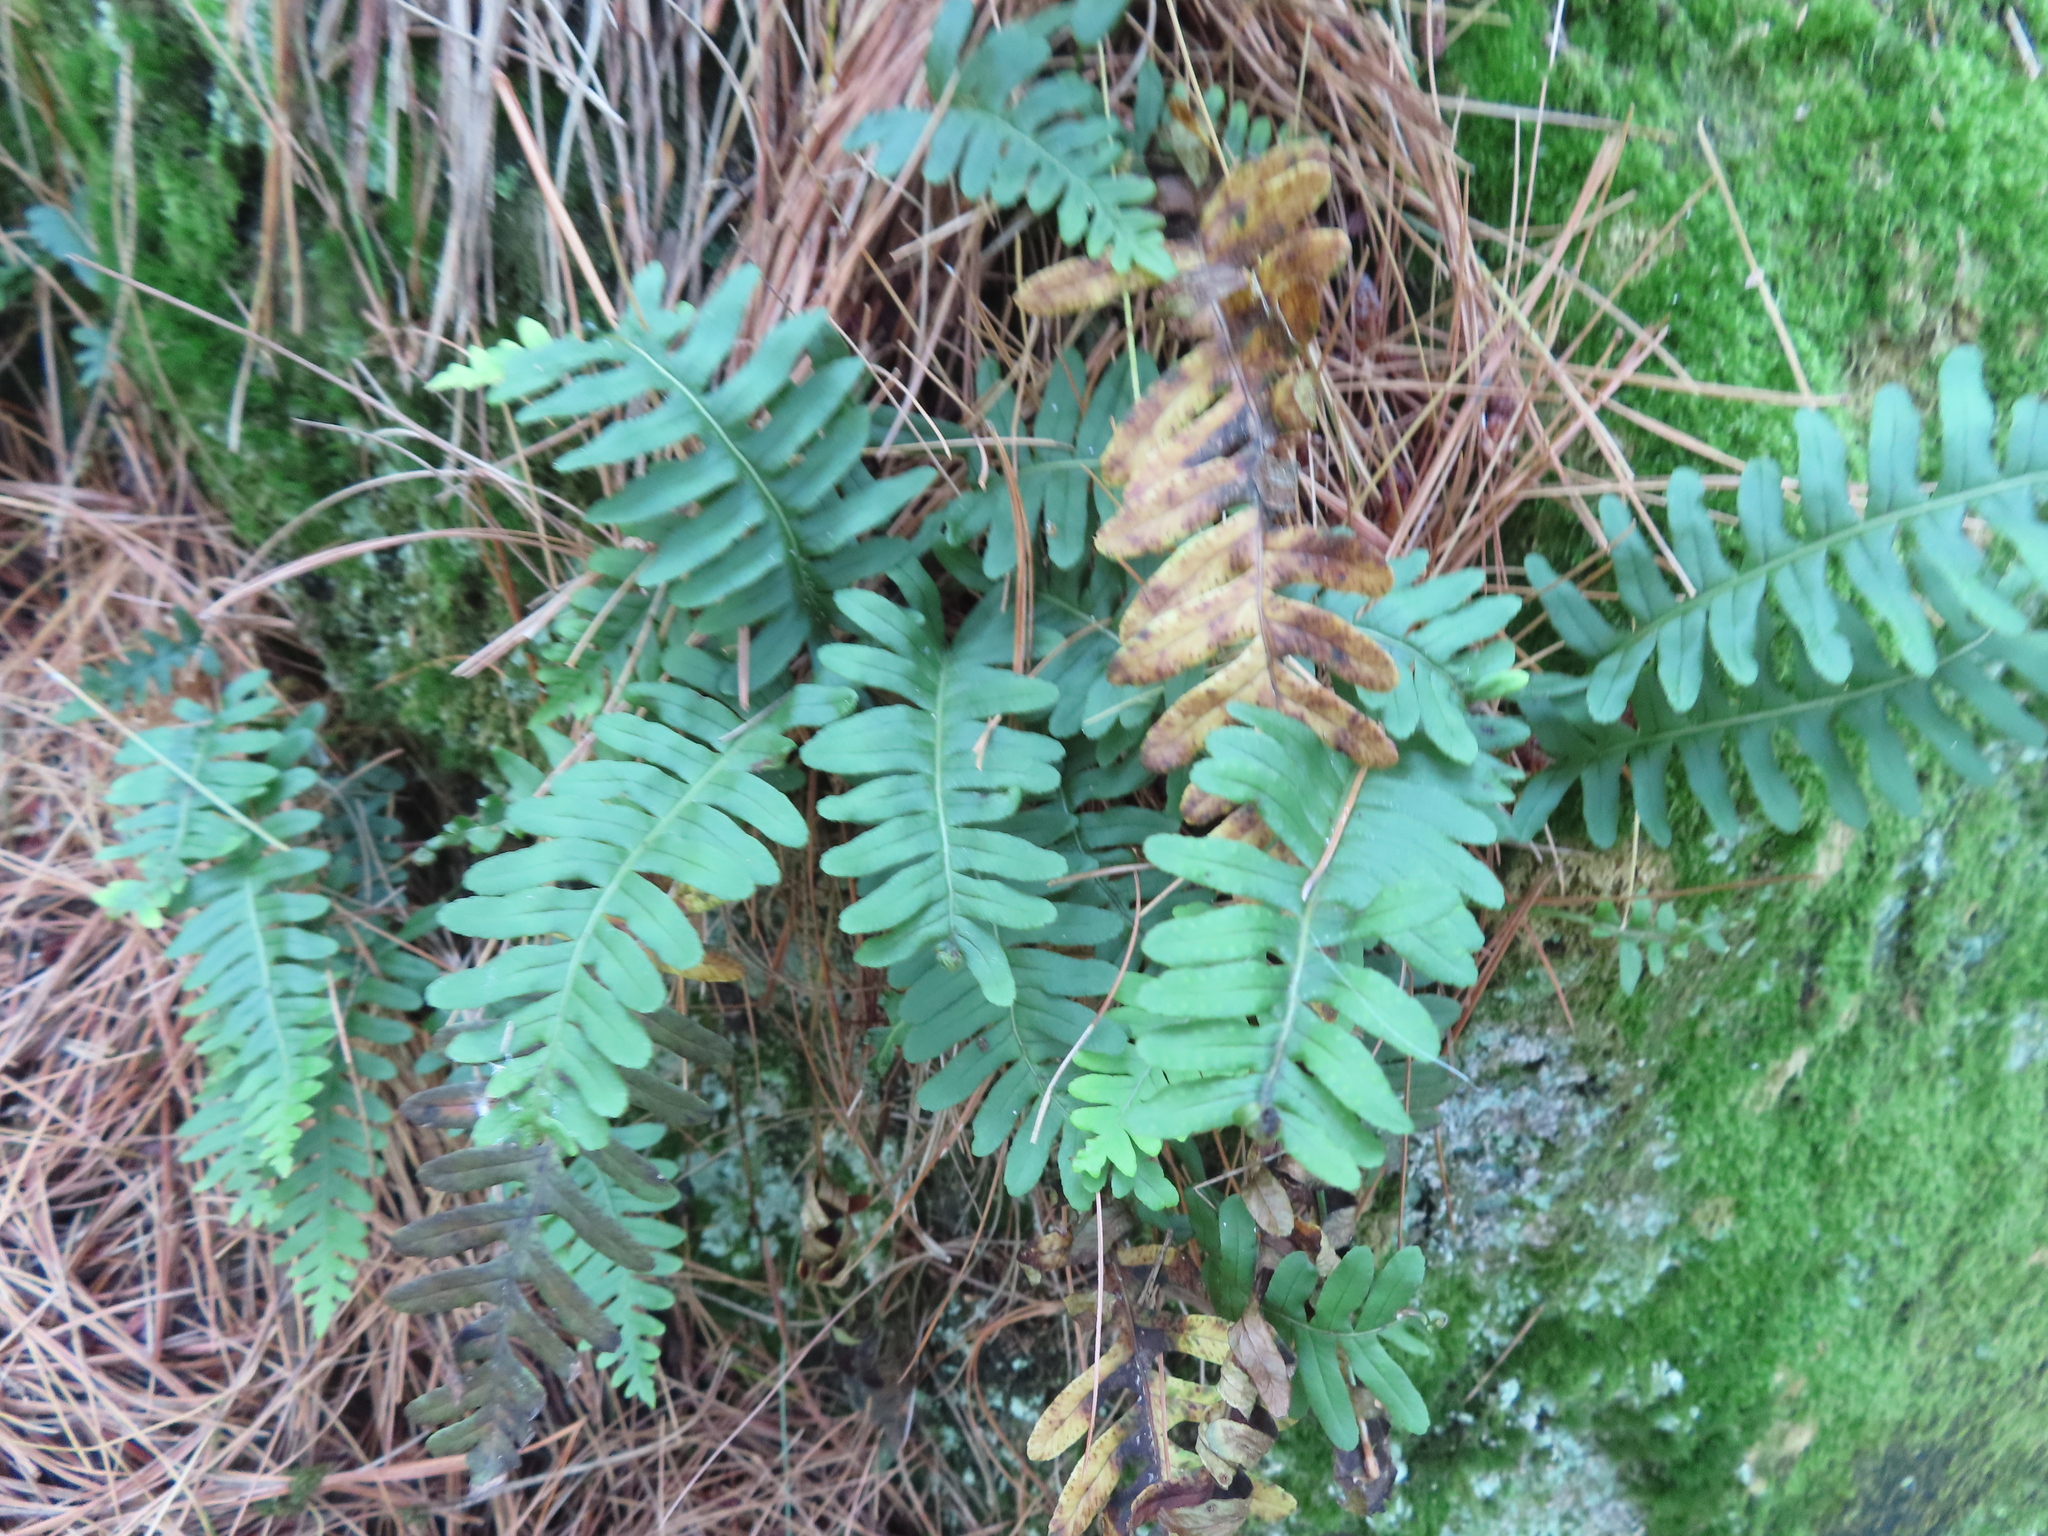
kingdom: Plantae
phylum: Tracheophyta
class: Polypodiopsida
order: Polypodiales
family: Polypodiaceae
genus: Polypodium
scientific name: Polypodium virginianum
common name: American wall fern
